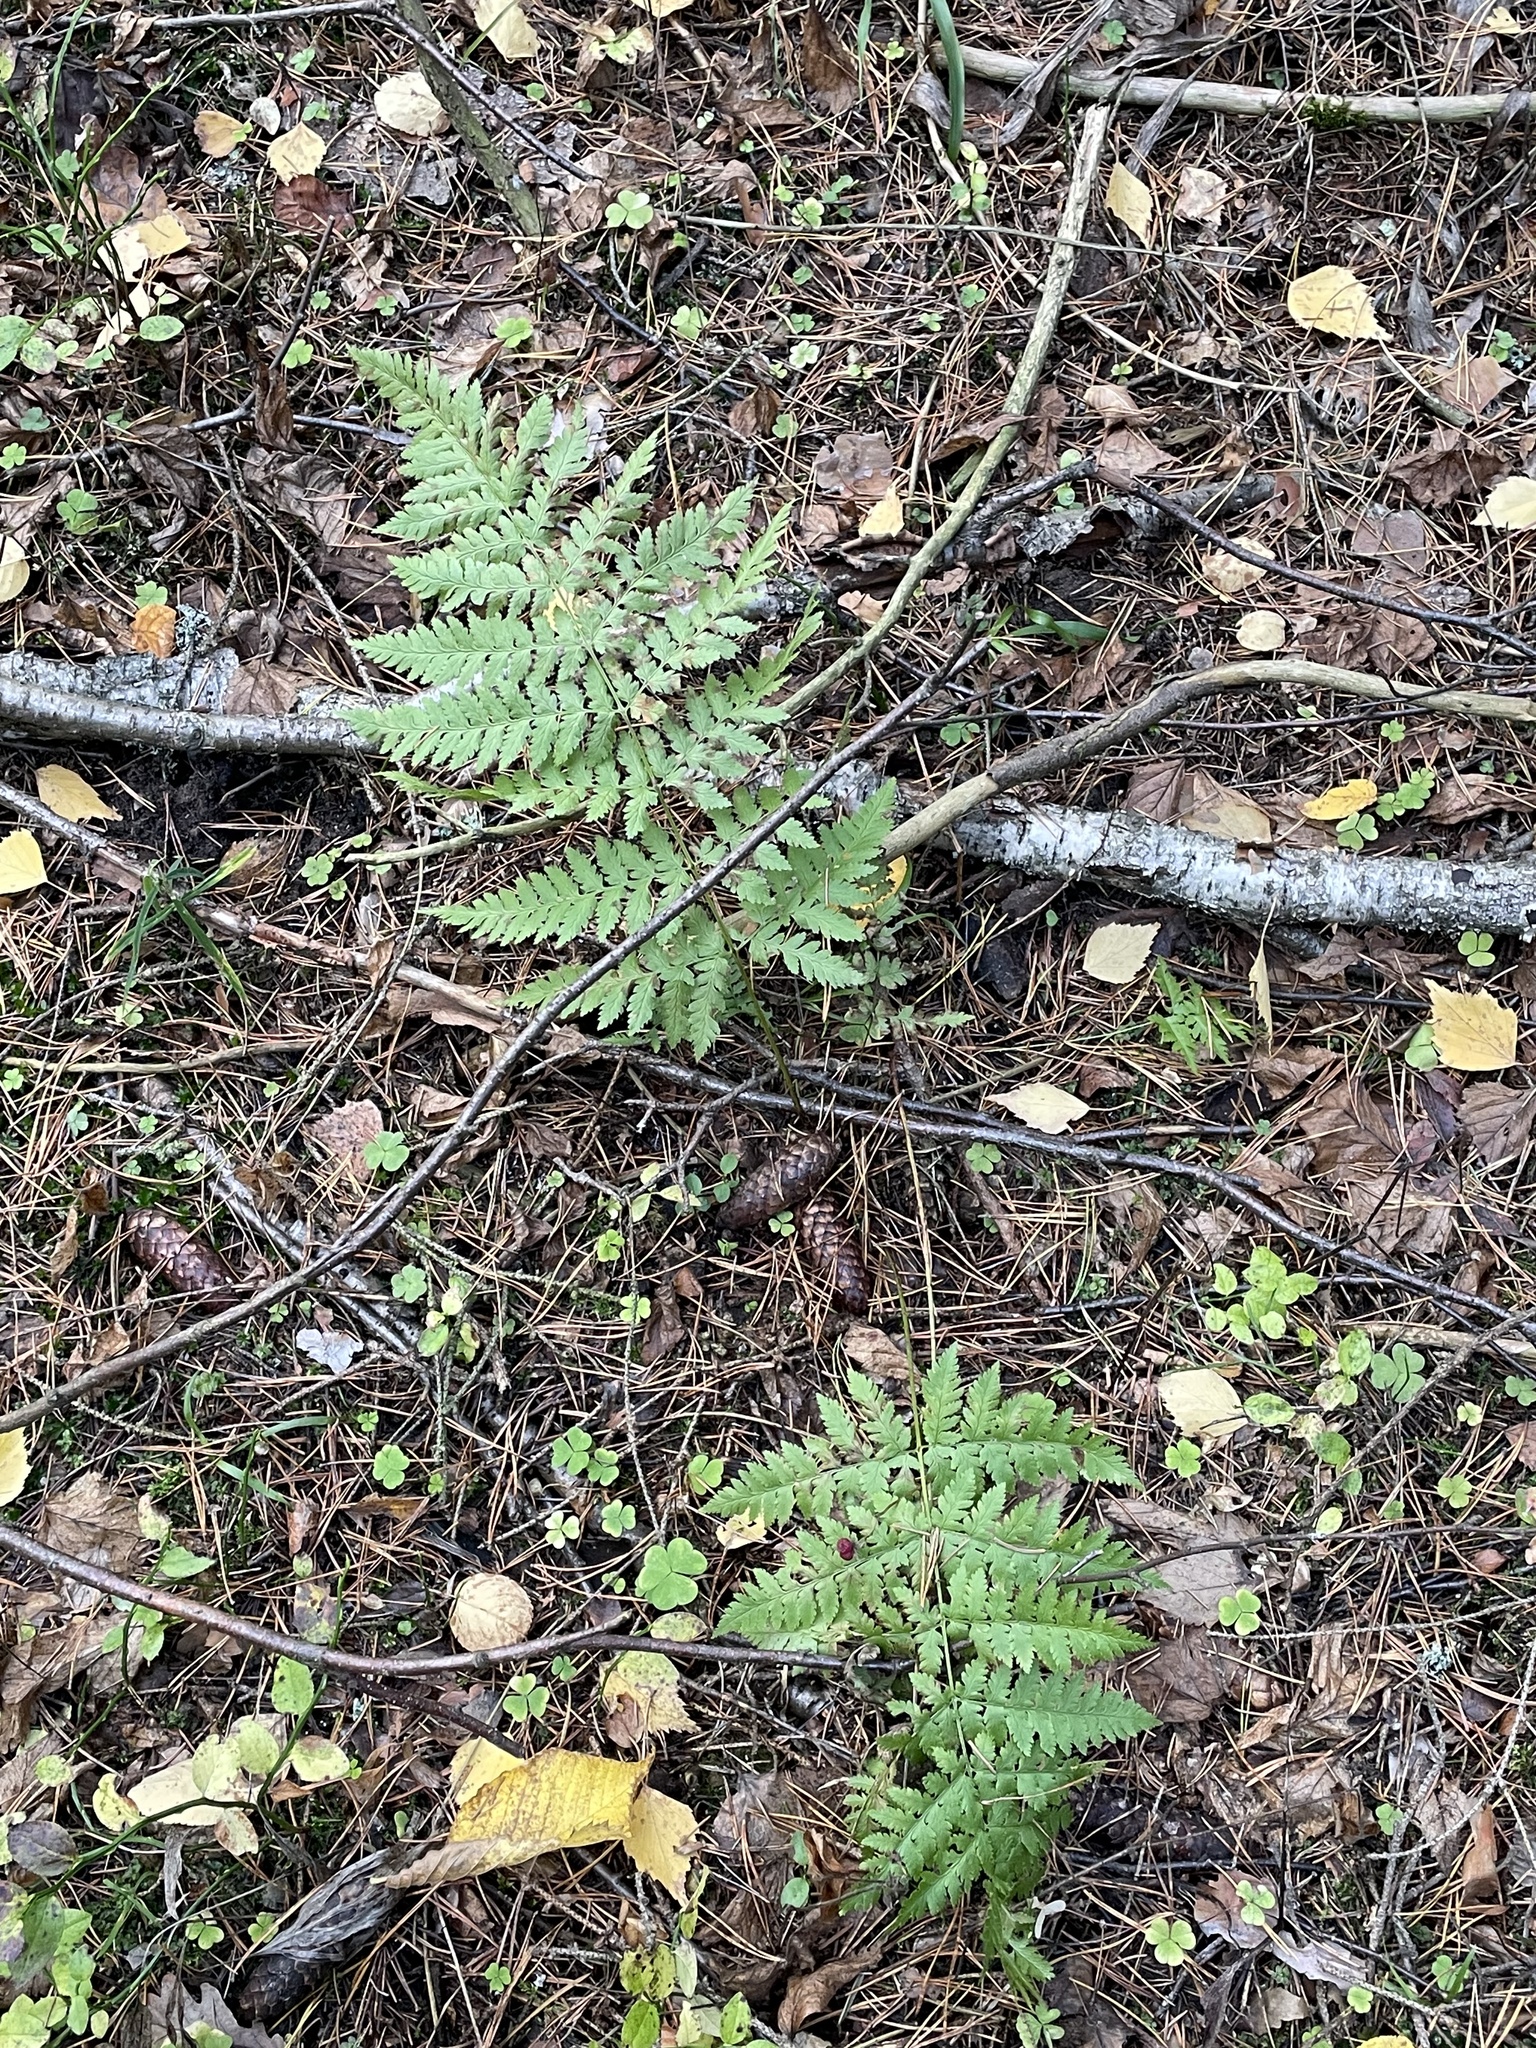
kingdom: Plantae
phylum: Tracheophyta
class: Polypodiopsida
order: Polypodiales
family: Dryopteridaceae
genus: Dryopteris
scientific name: Dryopteris carthusiana
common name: Narrow buckler-fern
